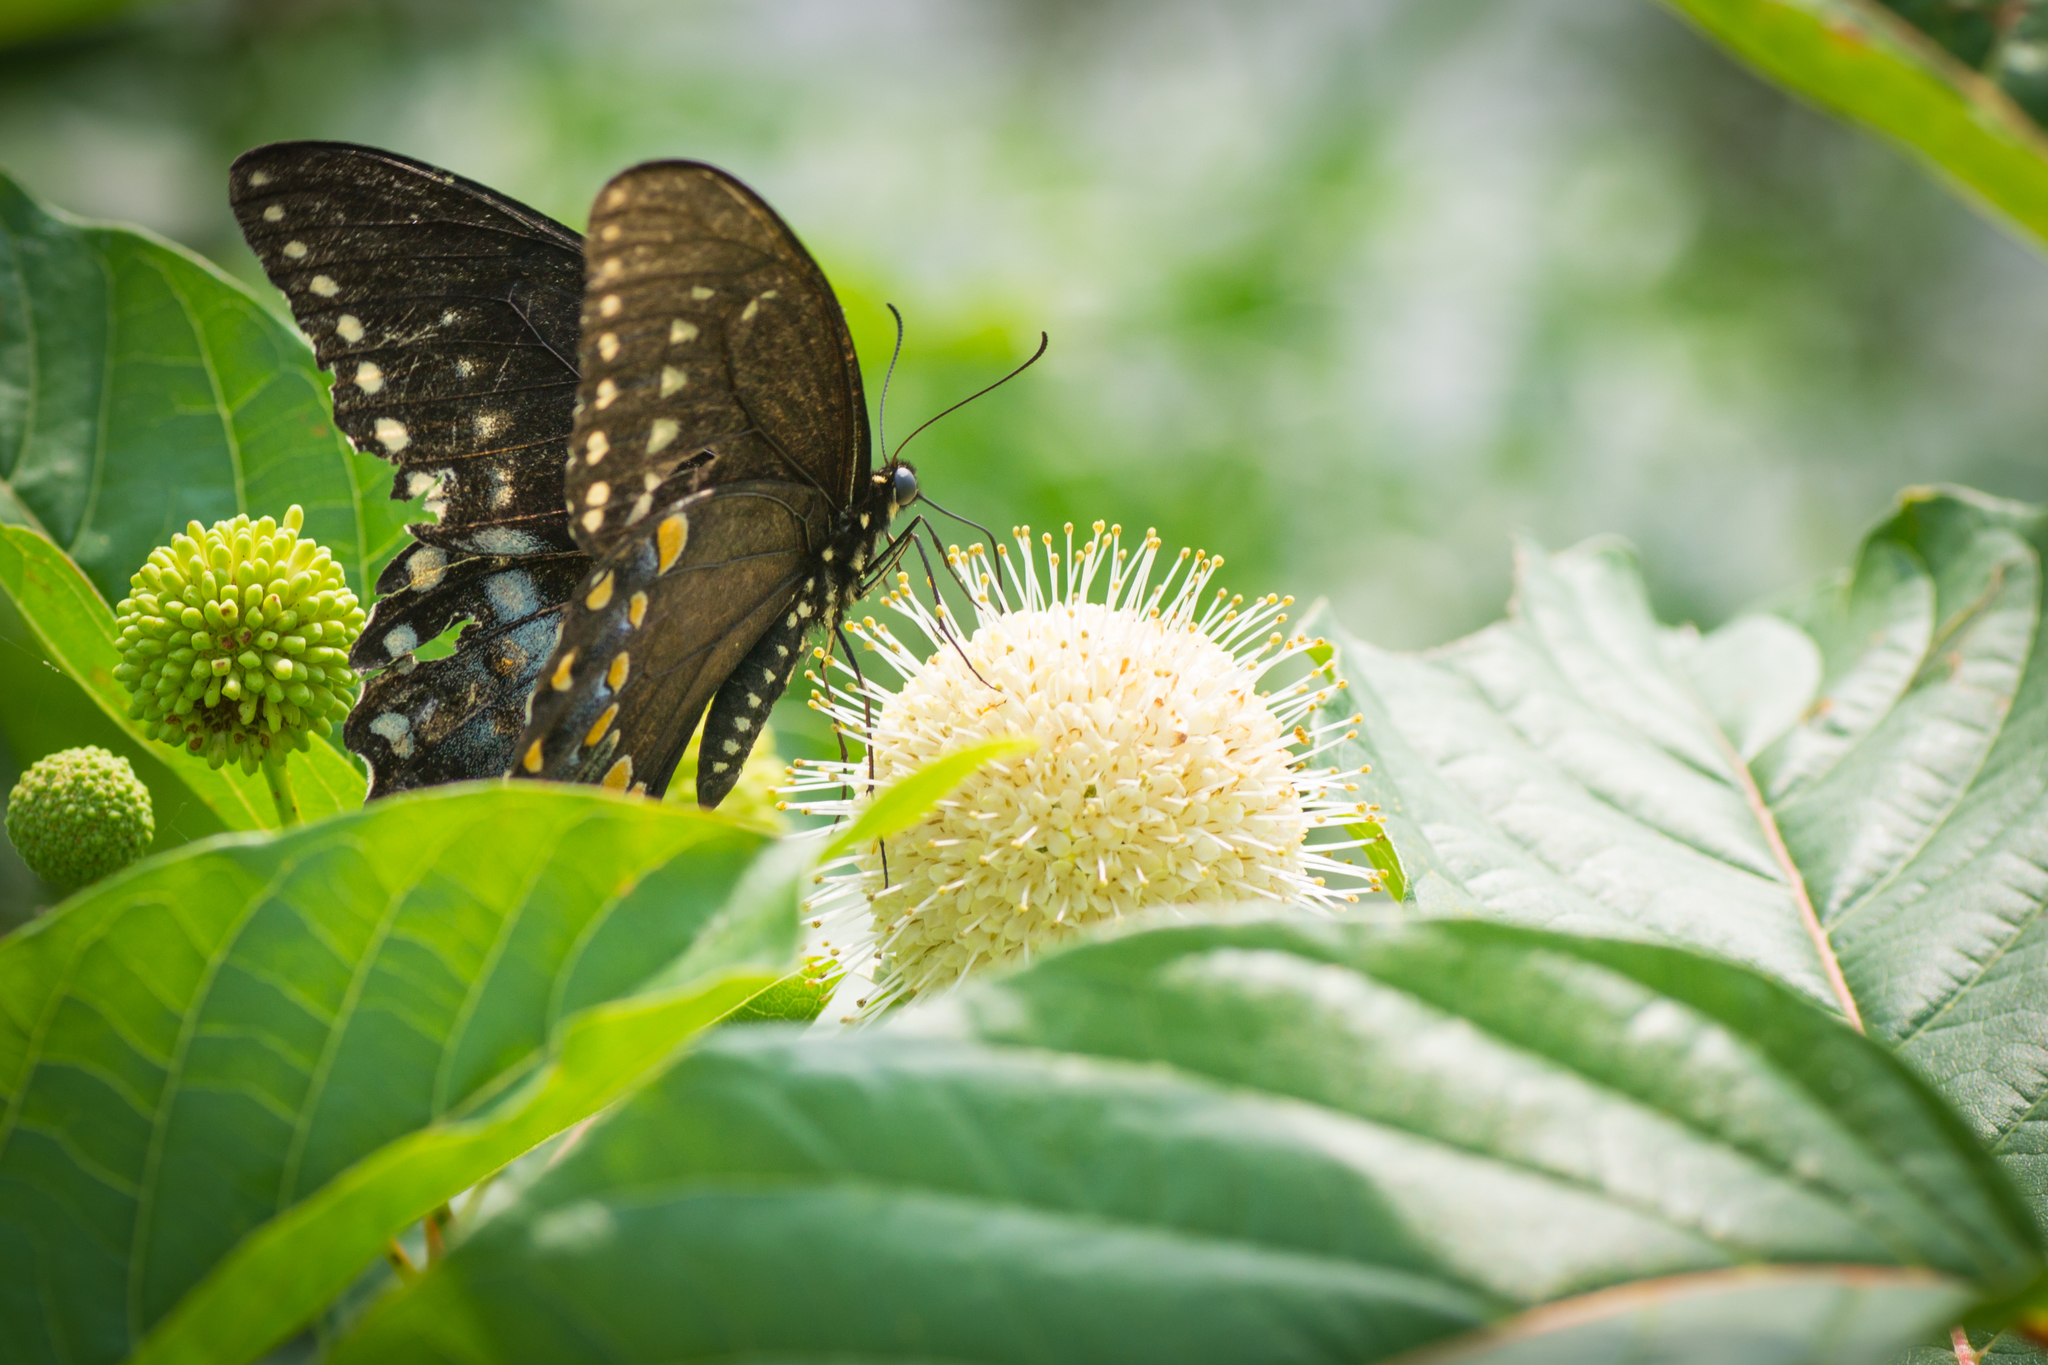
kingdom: Animalia
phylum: Arthropoda
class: Insecta
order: Lepidoptera
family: Papilionidae
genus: Papilio
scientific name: Papilio troilus
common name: Spicebush swallowtail
